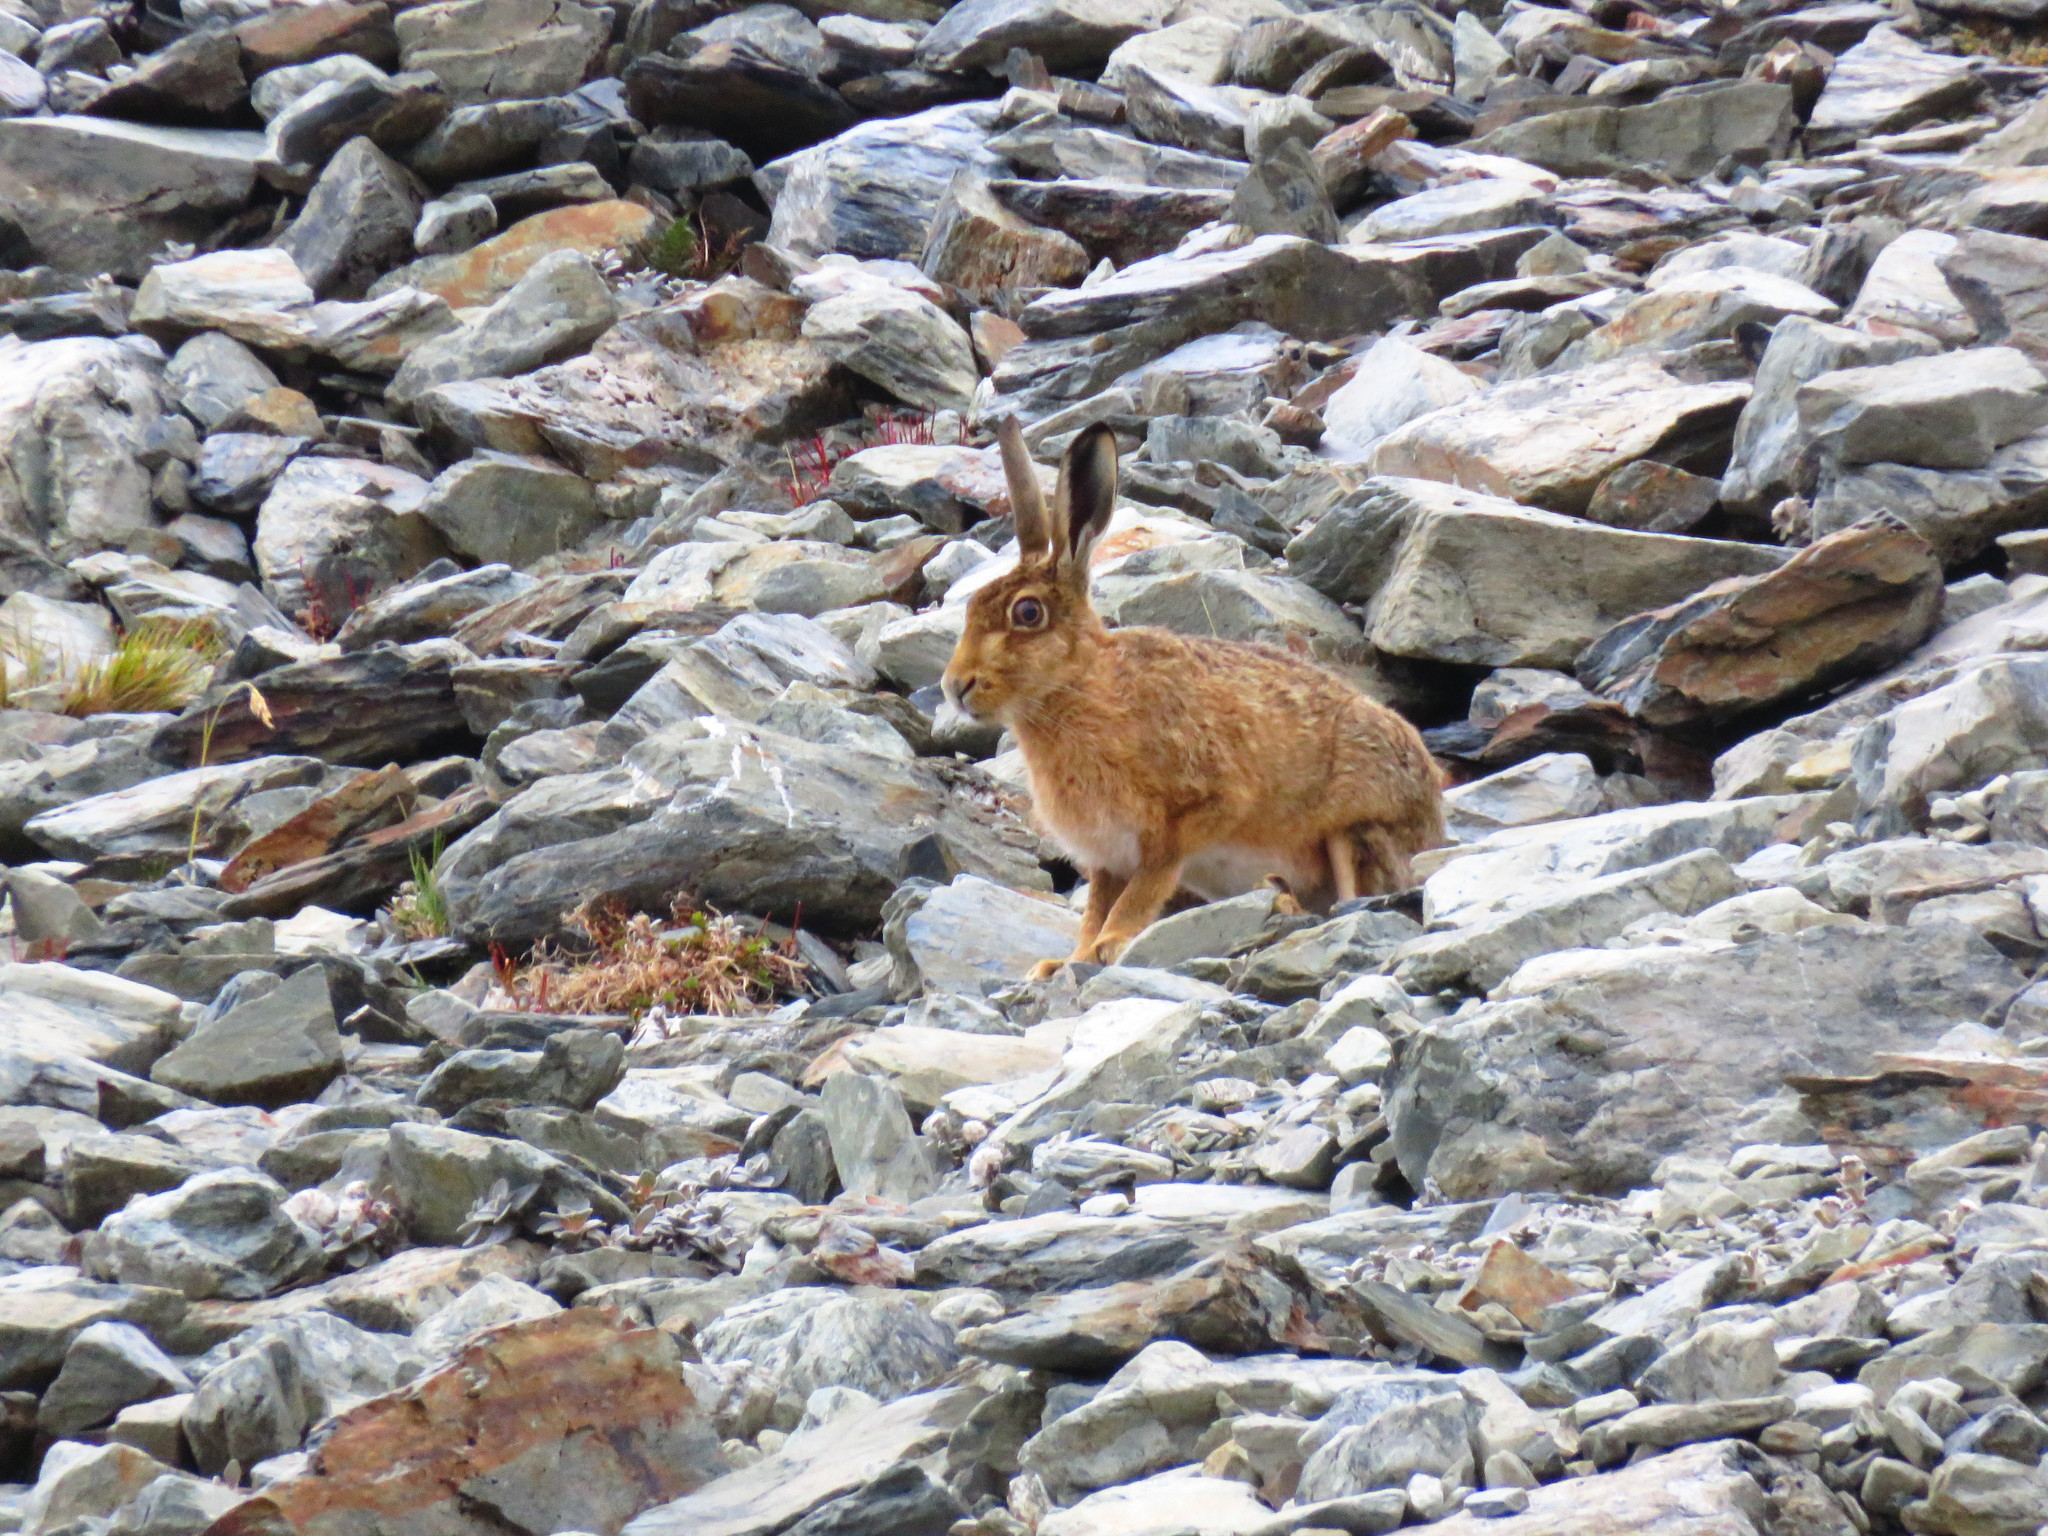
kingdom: Animalia
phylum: Chordata
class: Mammalia
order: Lagomorpha
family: Leporidae
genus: Lepus
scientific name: Lepus europaeus
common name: European hare
